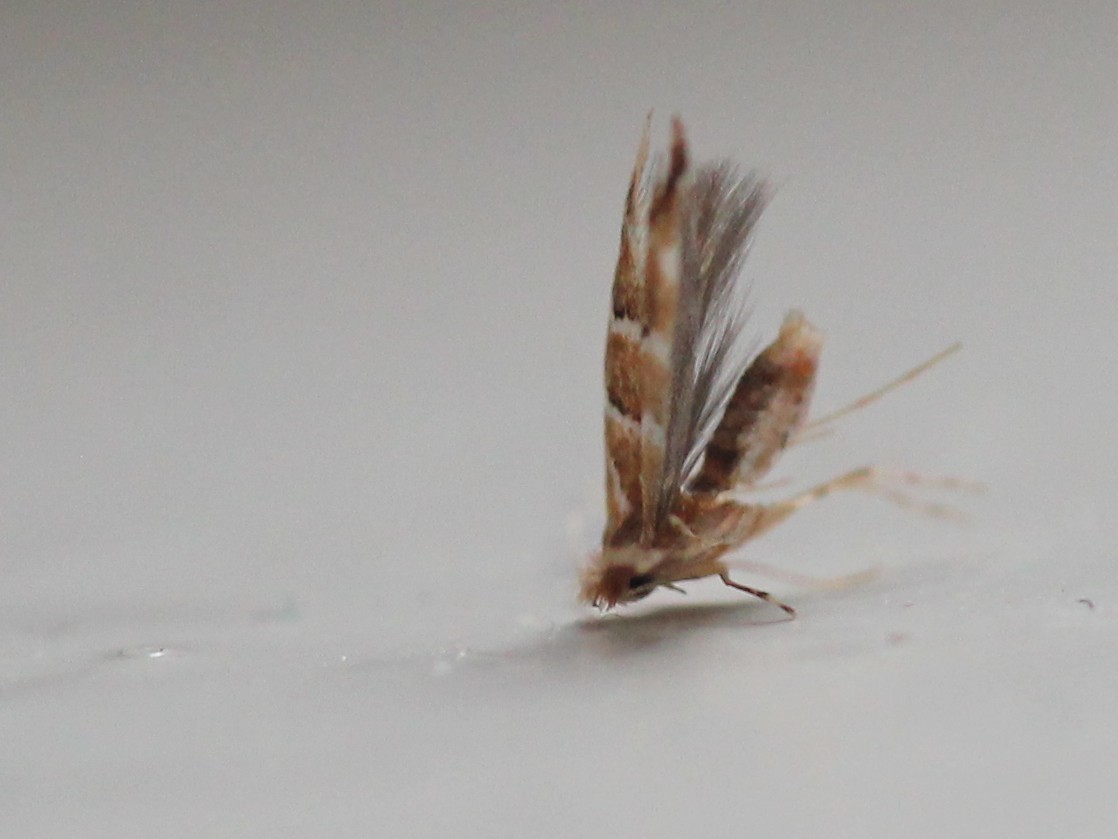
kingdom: Animalia
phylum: Arthropoda
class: Insecta
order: Lepidoptera
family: Gracillariidae
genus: Cameraria
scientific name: Cameraria ohridella
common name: Horse-chestnut leaf-miner
